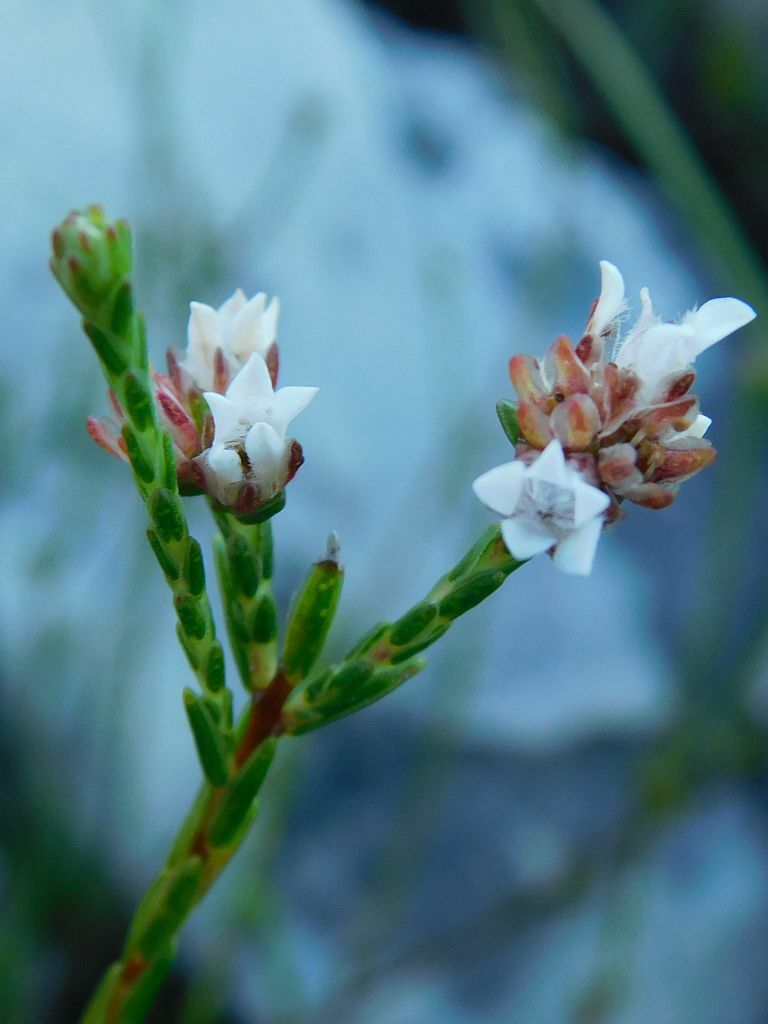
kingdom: Plantae
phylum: Tracheophyta
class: Magnoliopsida
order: Sapindales
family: Rutaceae
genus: Euchaetis
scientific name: Euchaetis flexilis
